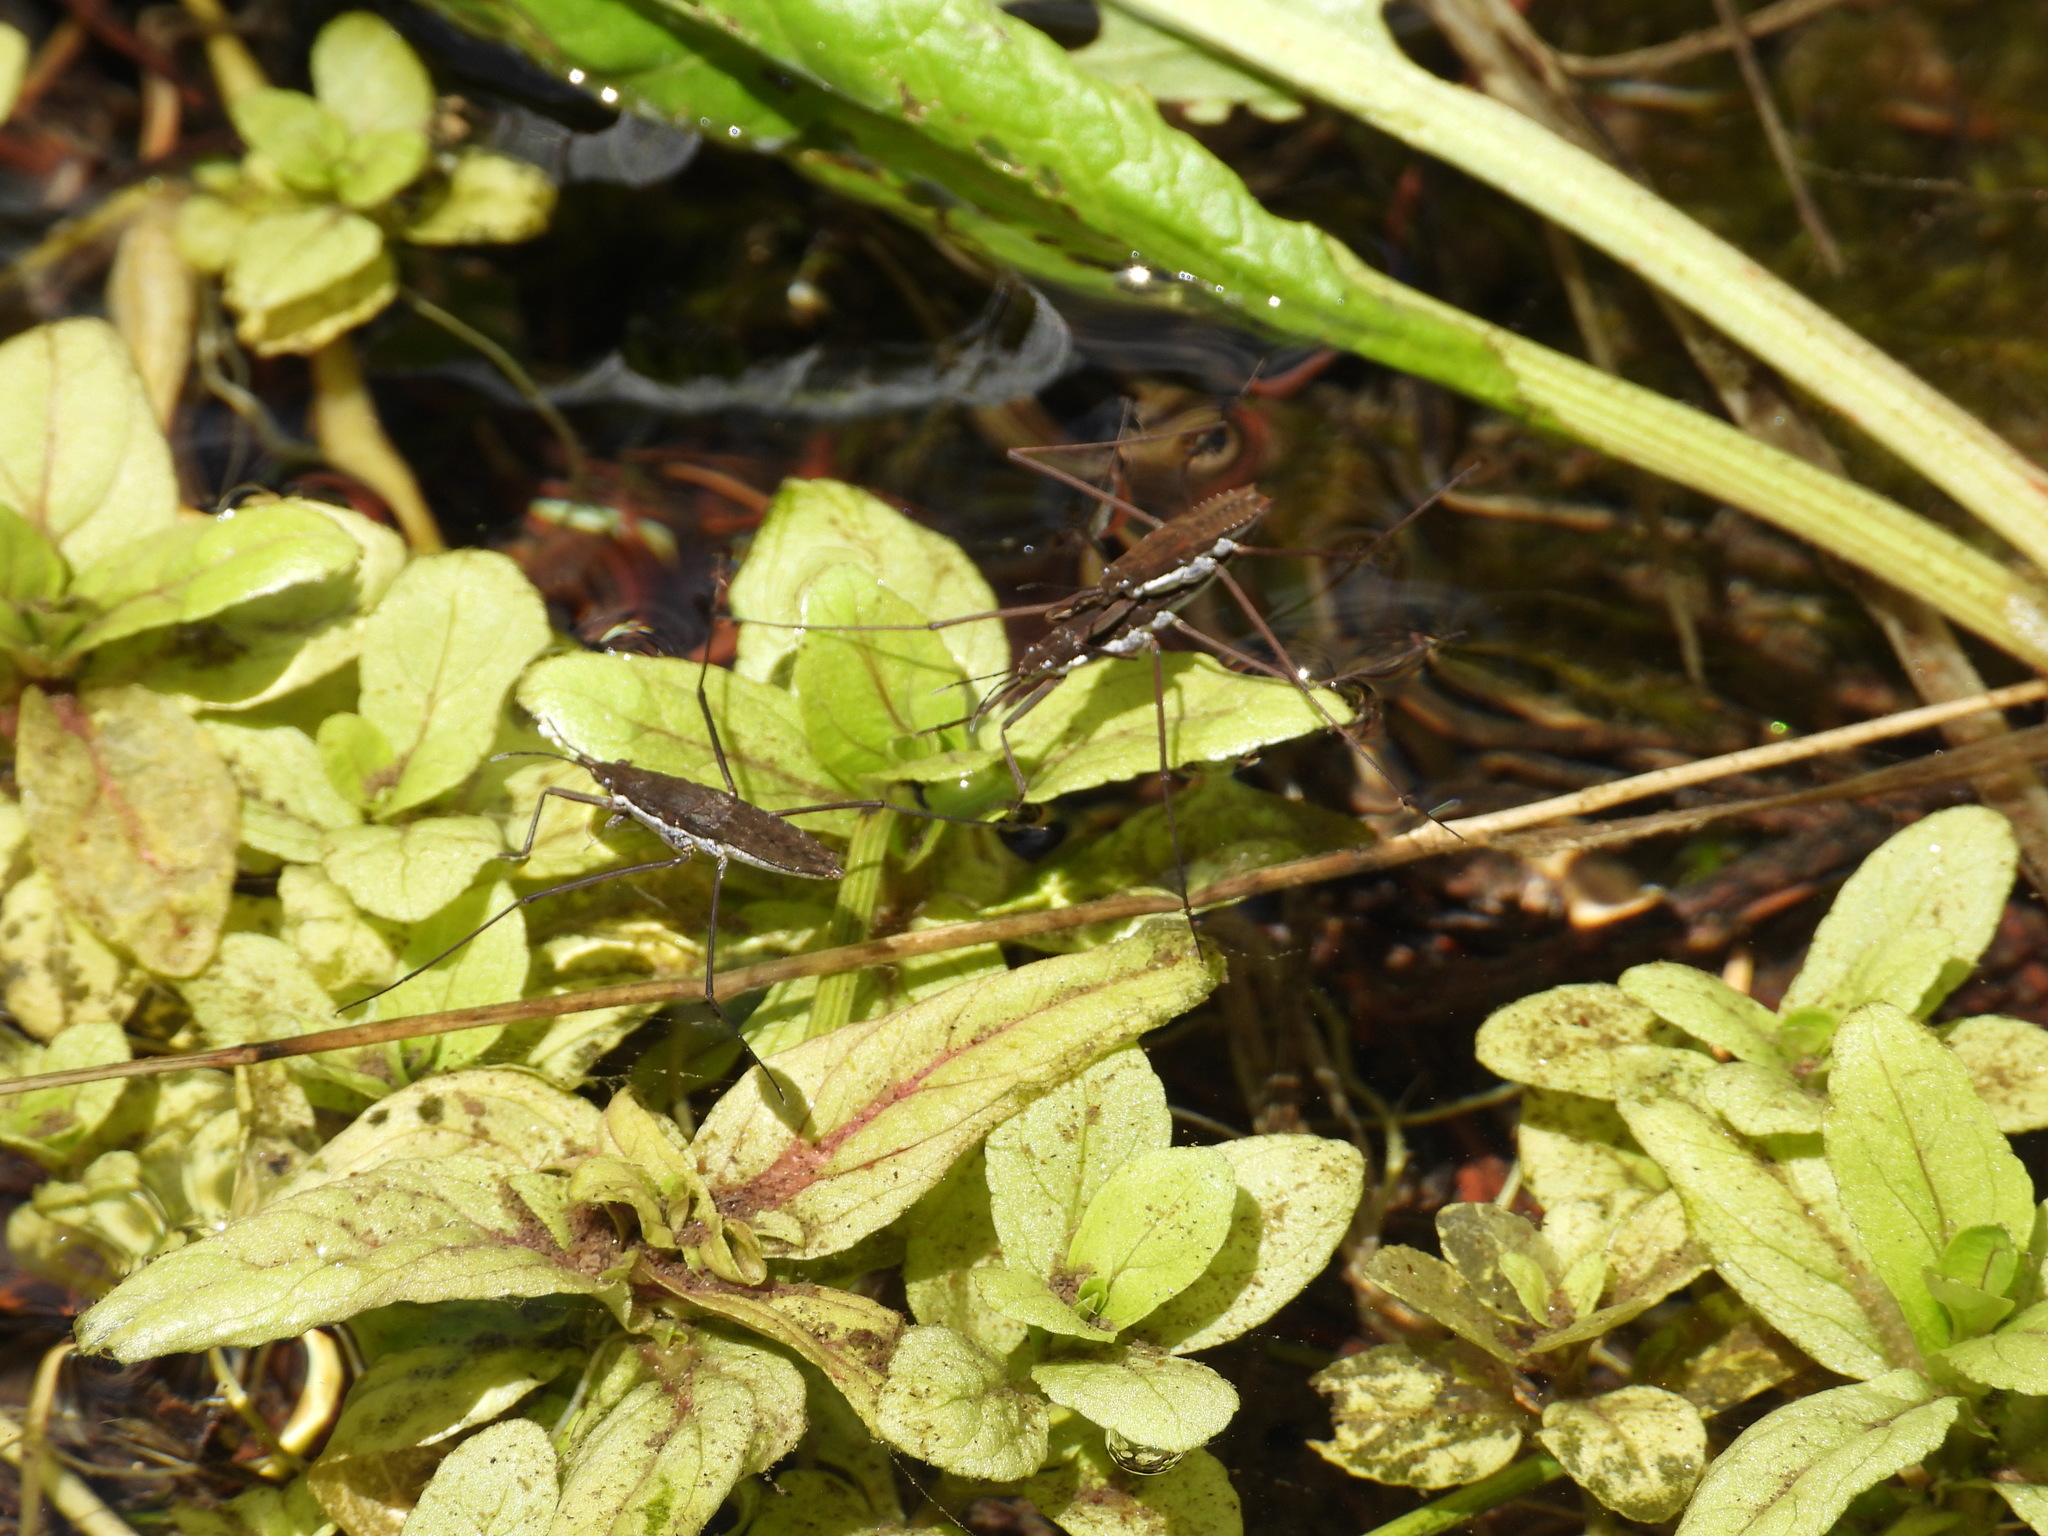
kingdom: Animalia
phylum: Arthropoda
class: Insecta
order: Hemiptera
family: Gerridae
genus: Aquarius
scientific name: Aquarius remigis
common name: Common water strider
